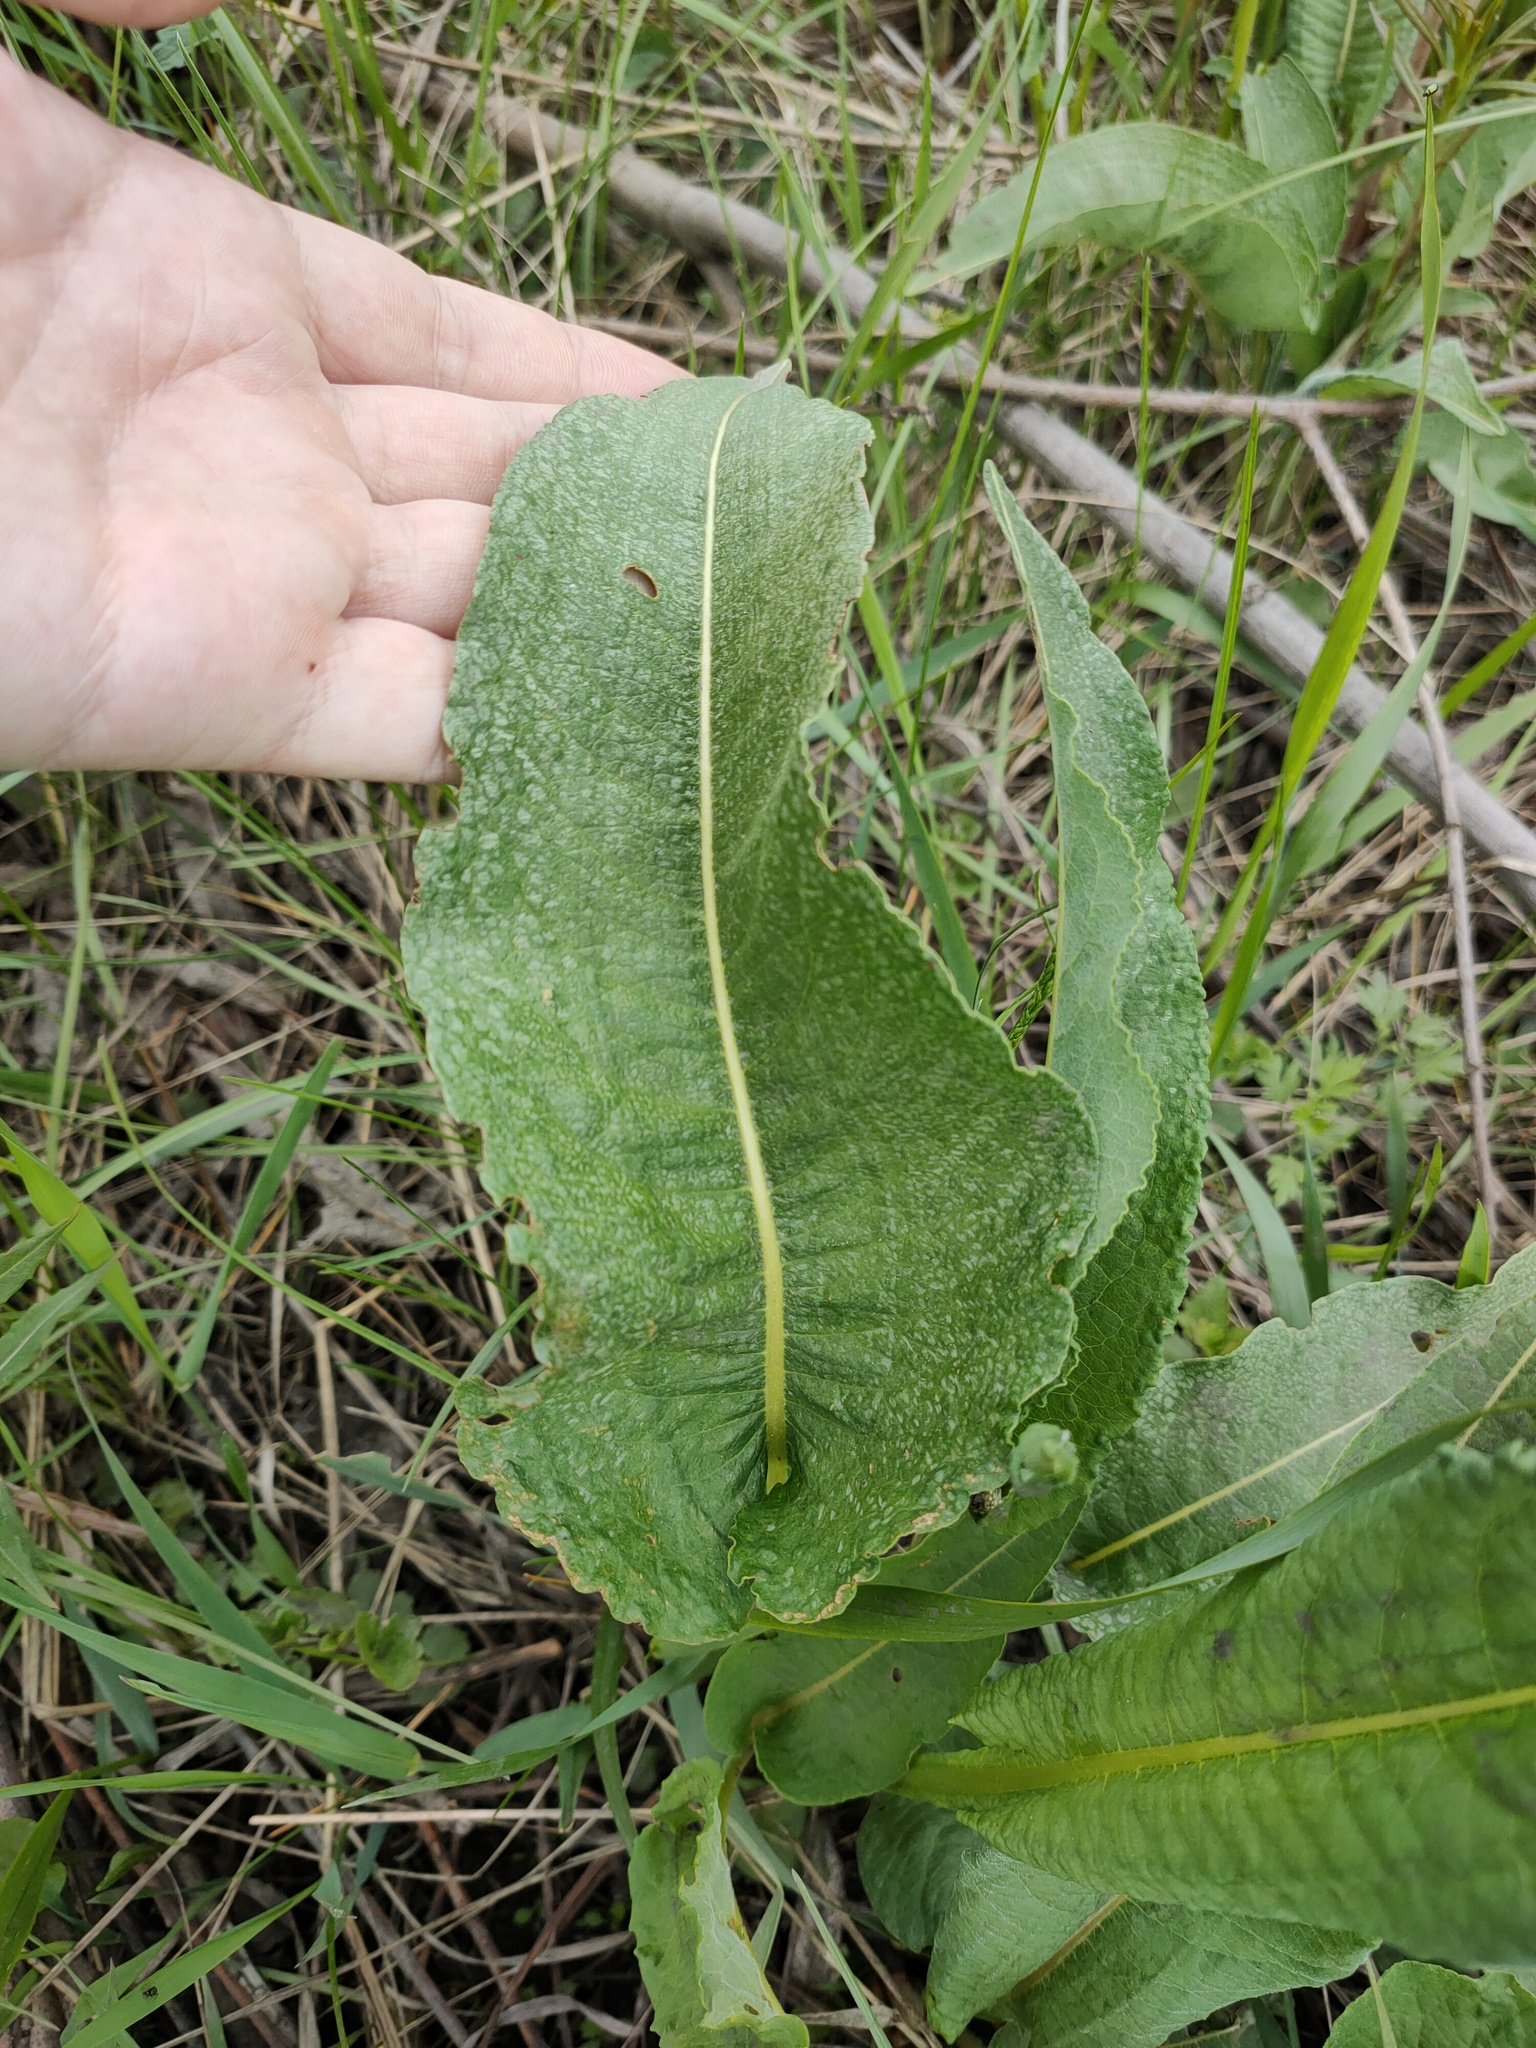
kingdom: Plantae
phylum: Tracheophyta
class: Magnoliopsida
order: Caryophyllales
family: Polygonaceae
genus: Bistorta
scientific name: Bistorta officinalis
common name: Common bistort
